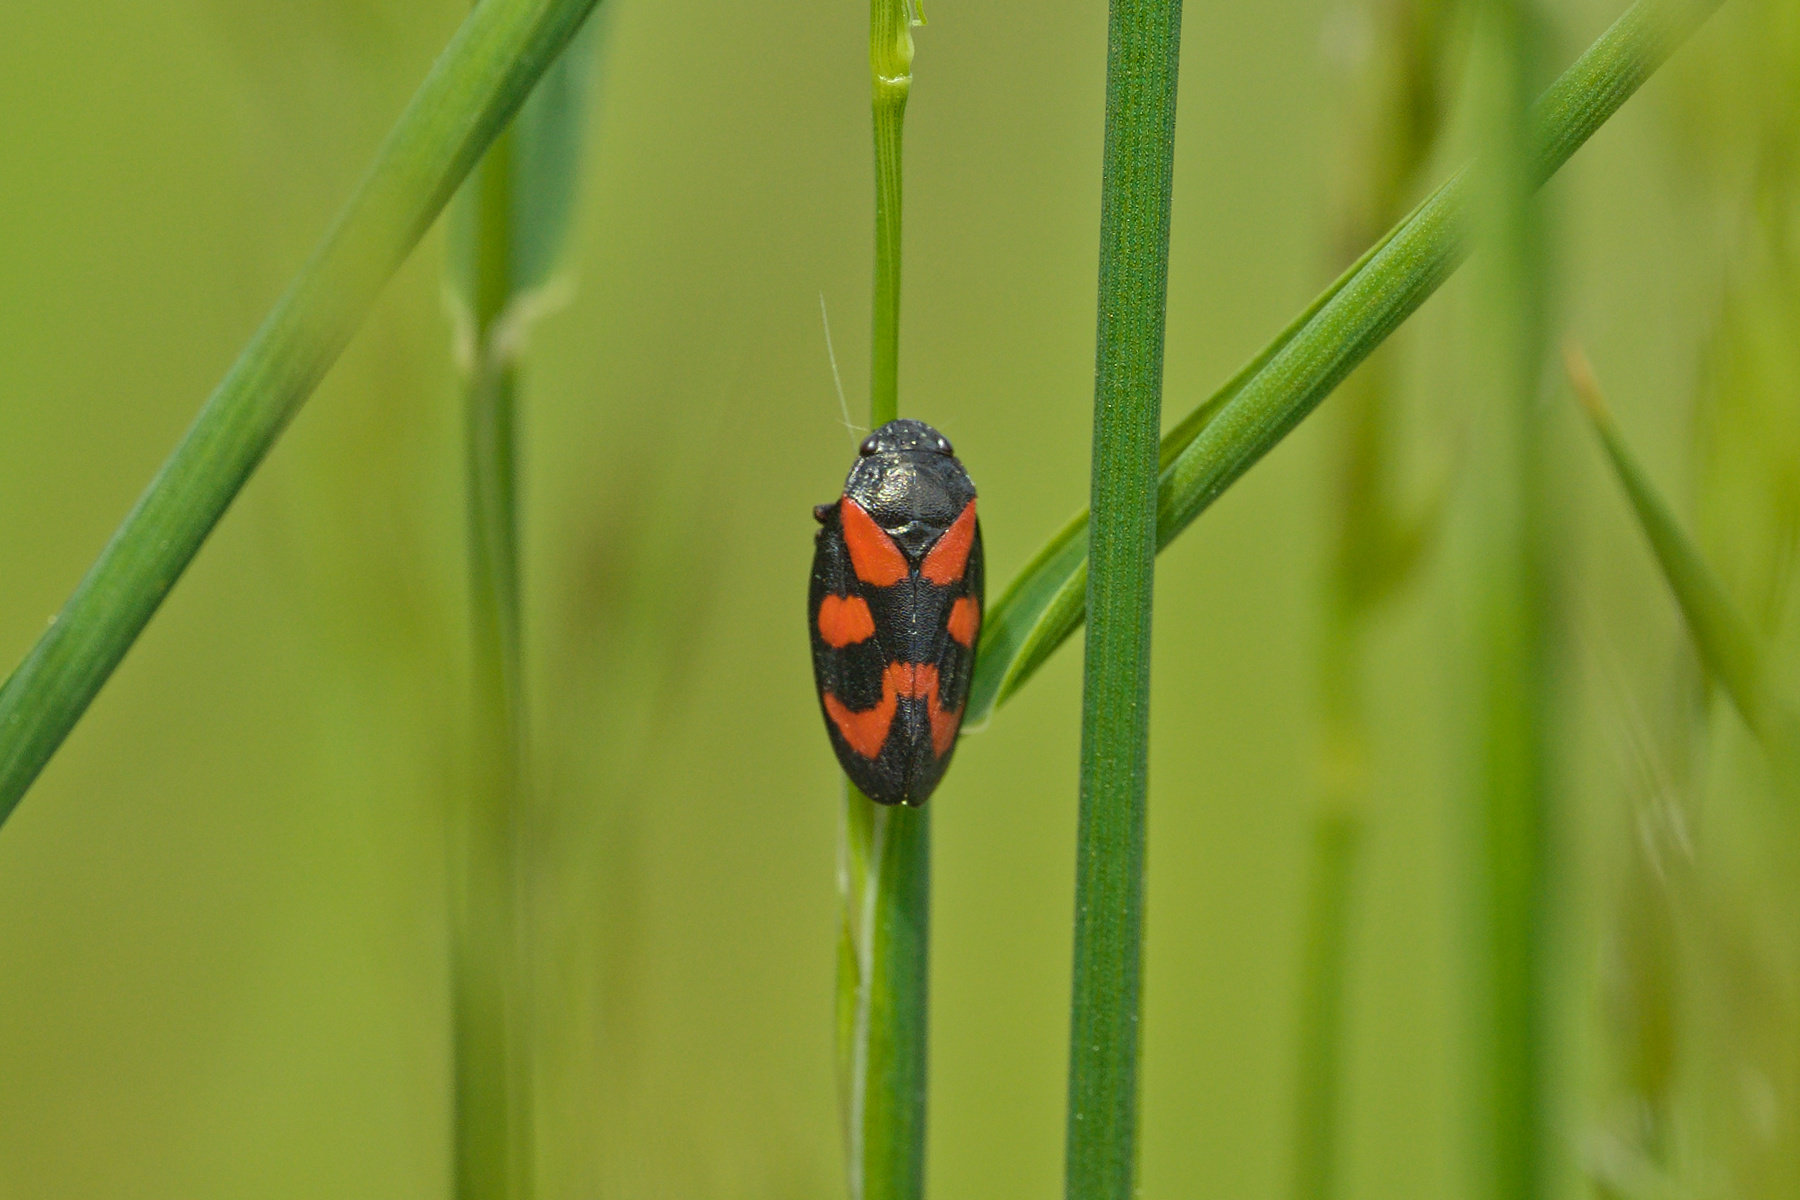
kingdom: Animalia
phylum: Arthropoda
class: Insecta
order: Hemiptera
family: Cercopidae
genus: Cercopis
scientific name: Cercopis vulnerata
